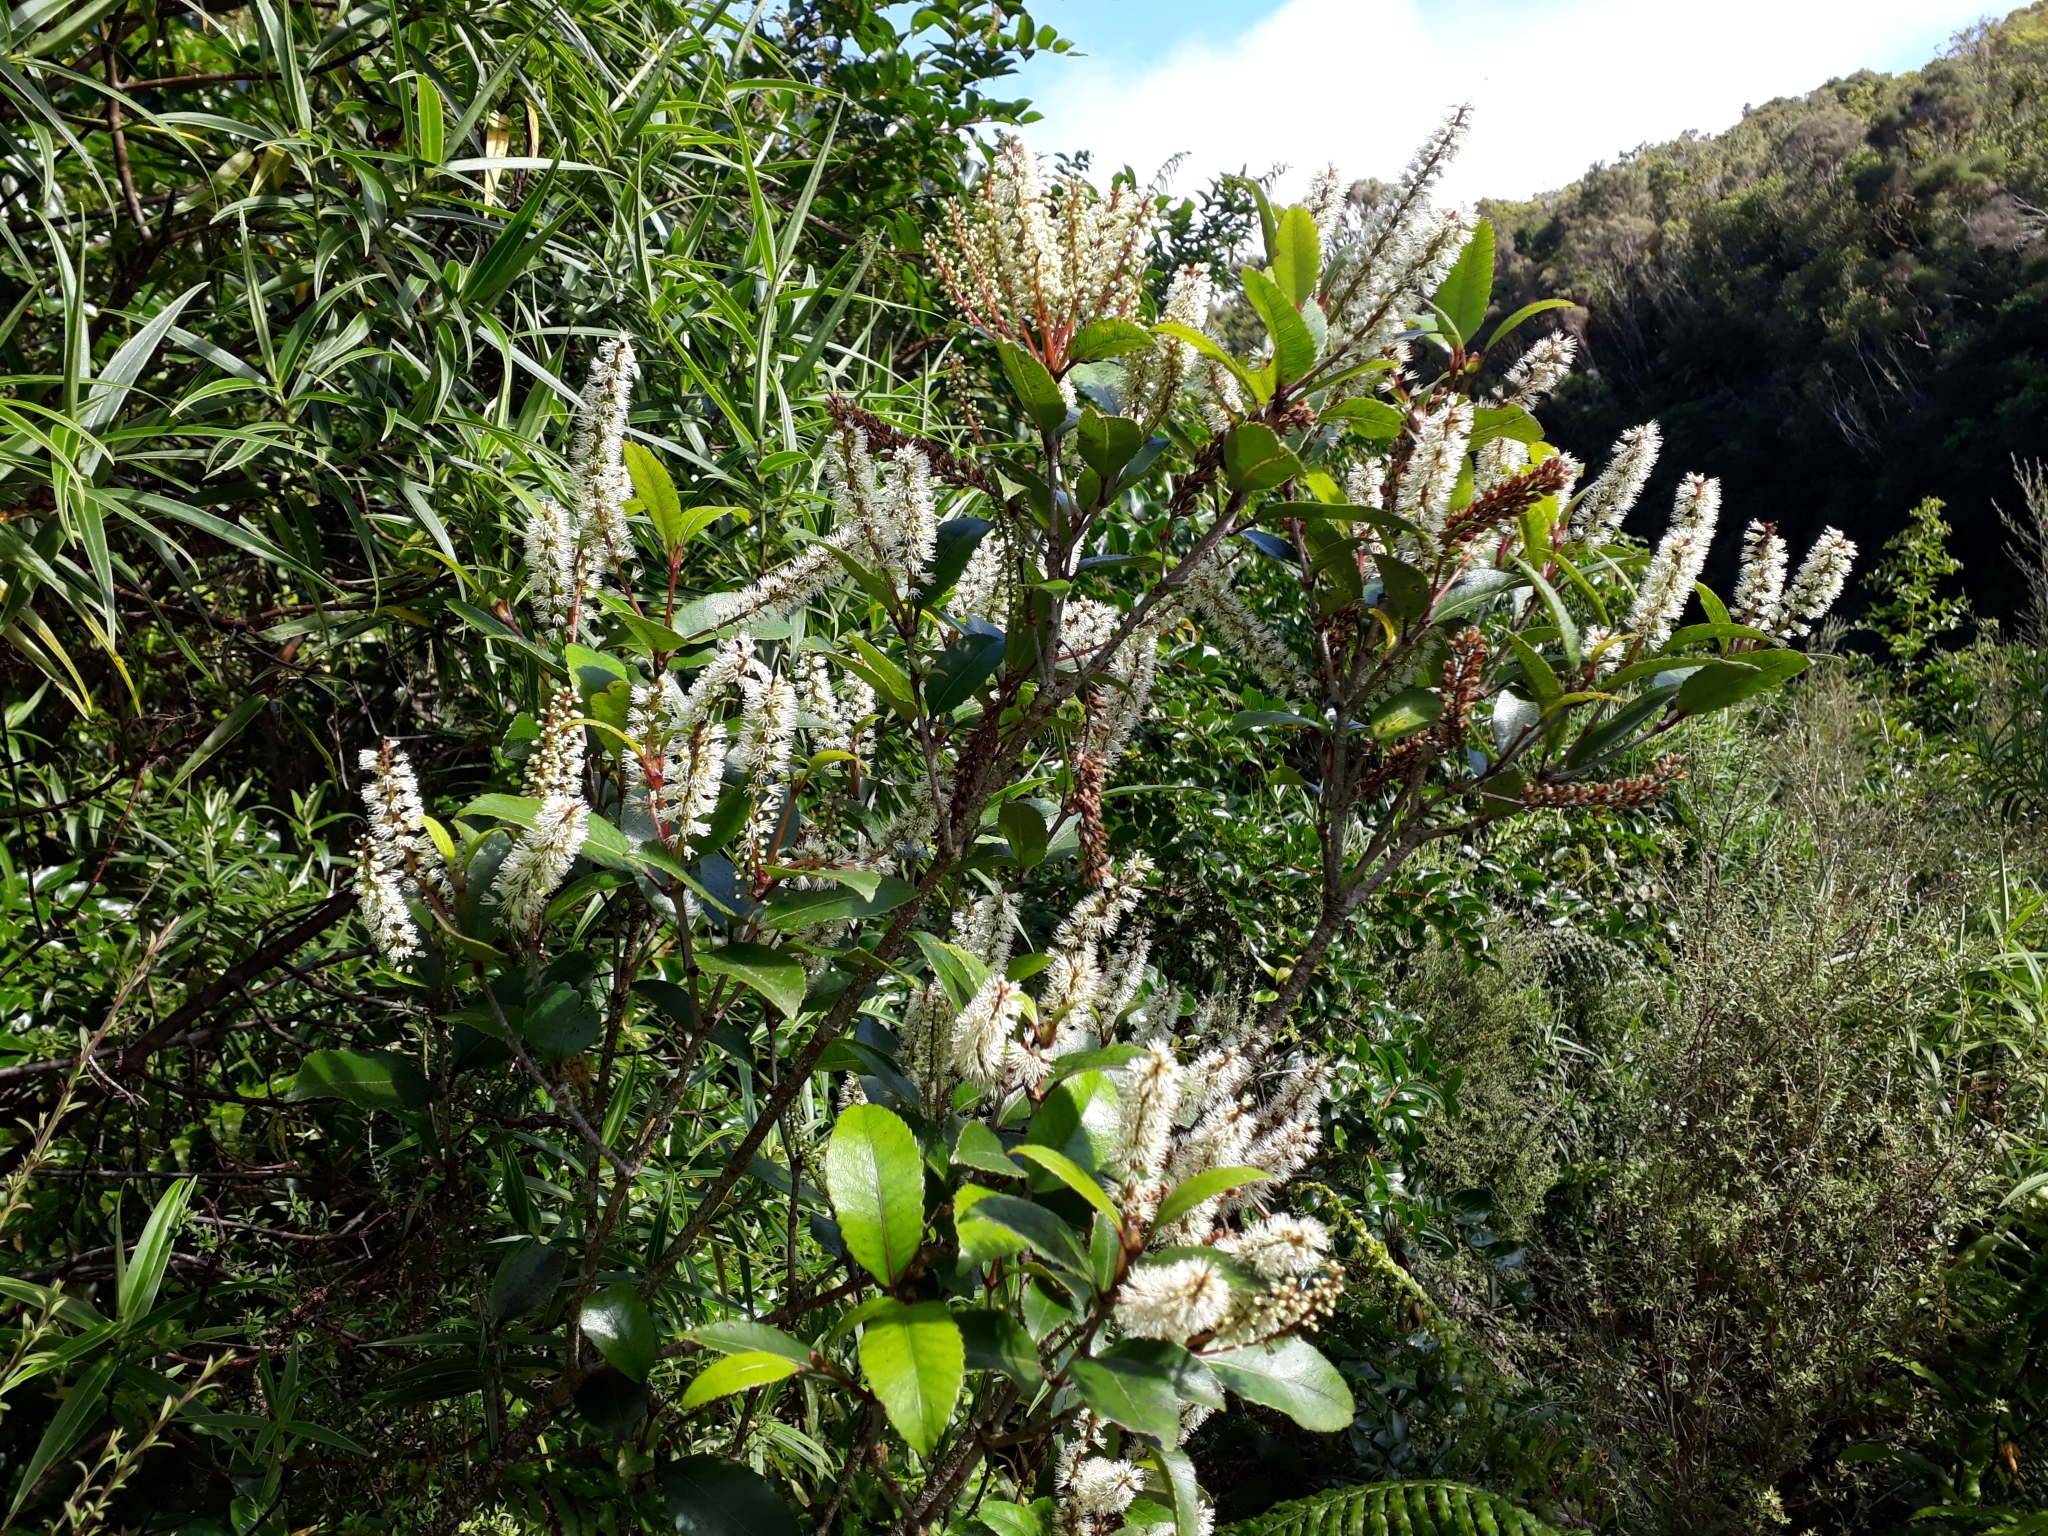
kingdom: Plantae
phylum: Tracheophyta
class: Magnoliopsida
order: Oxalidales
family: Cunoniaceae
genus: Pterophylla
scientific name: Pterophylla racemosa
